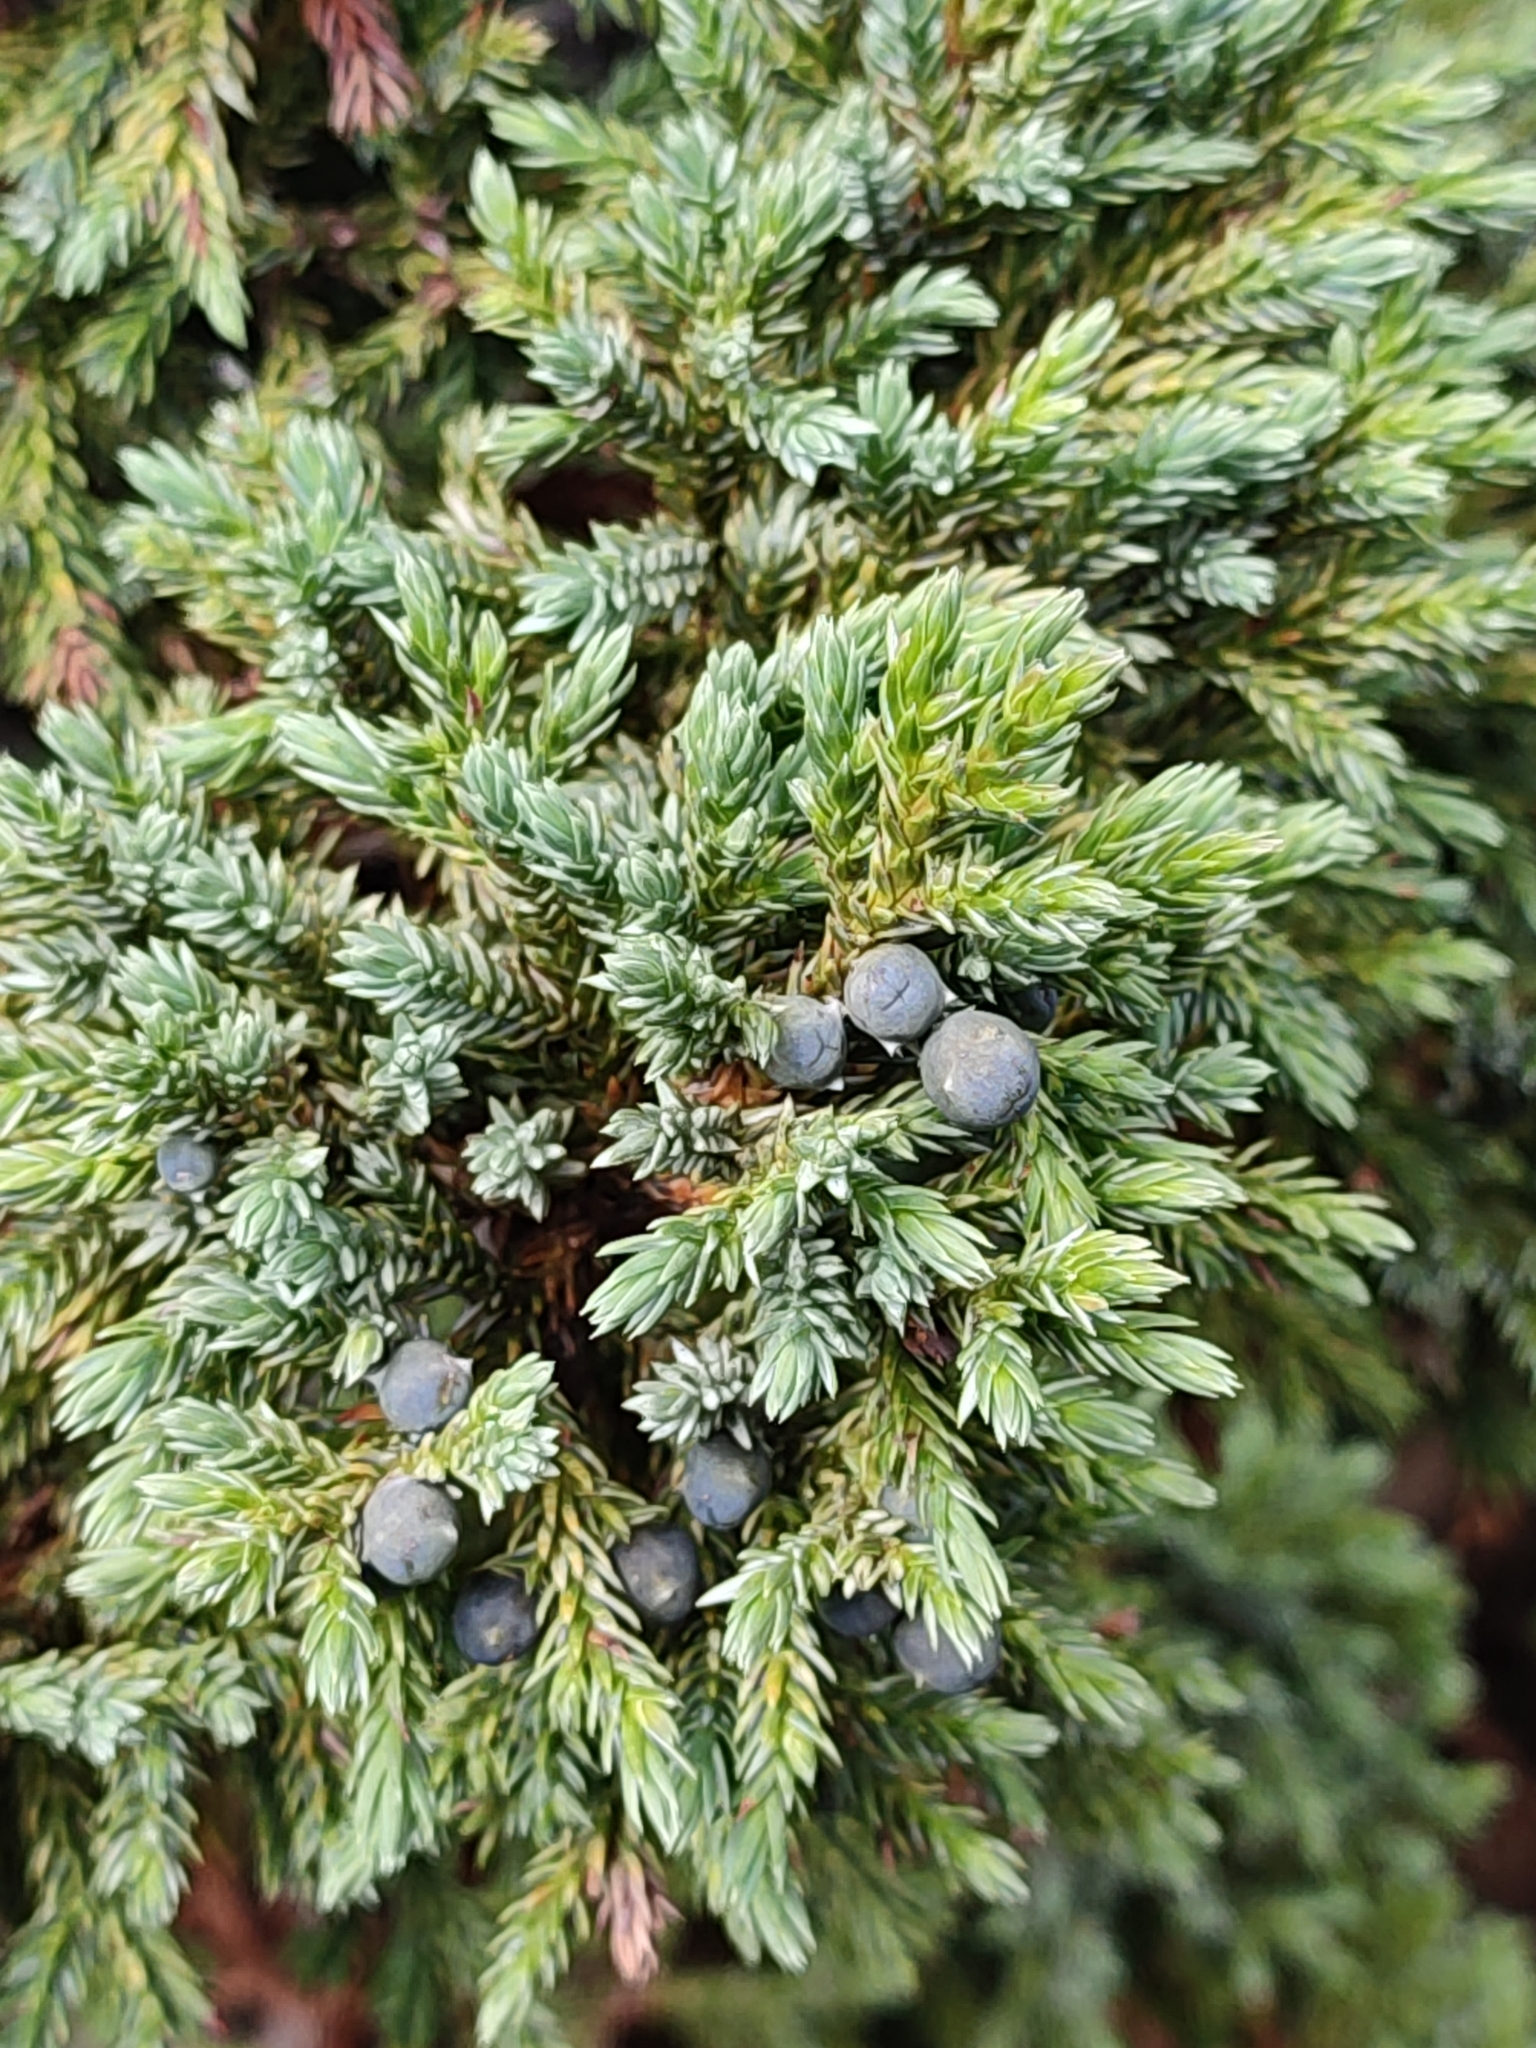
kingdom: Plantae
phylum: Tracheophyta
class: Pinopsida
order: Pinales
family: Cupressaceae
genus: Juniperus
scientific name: Juniperus squamata
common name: Flaky juniper
